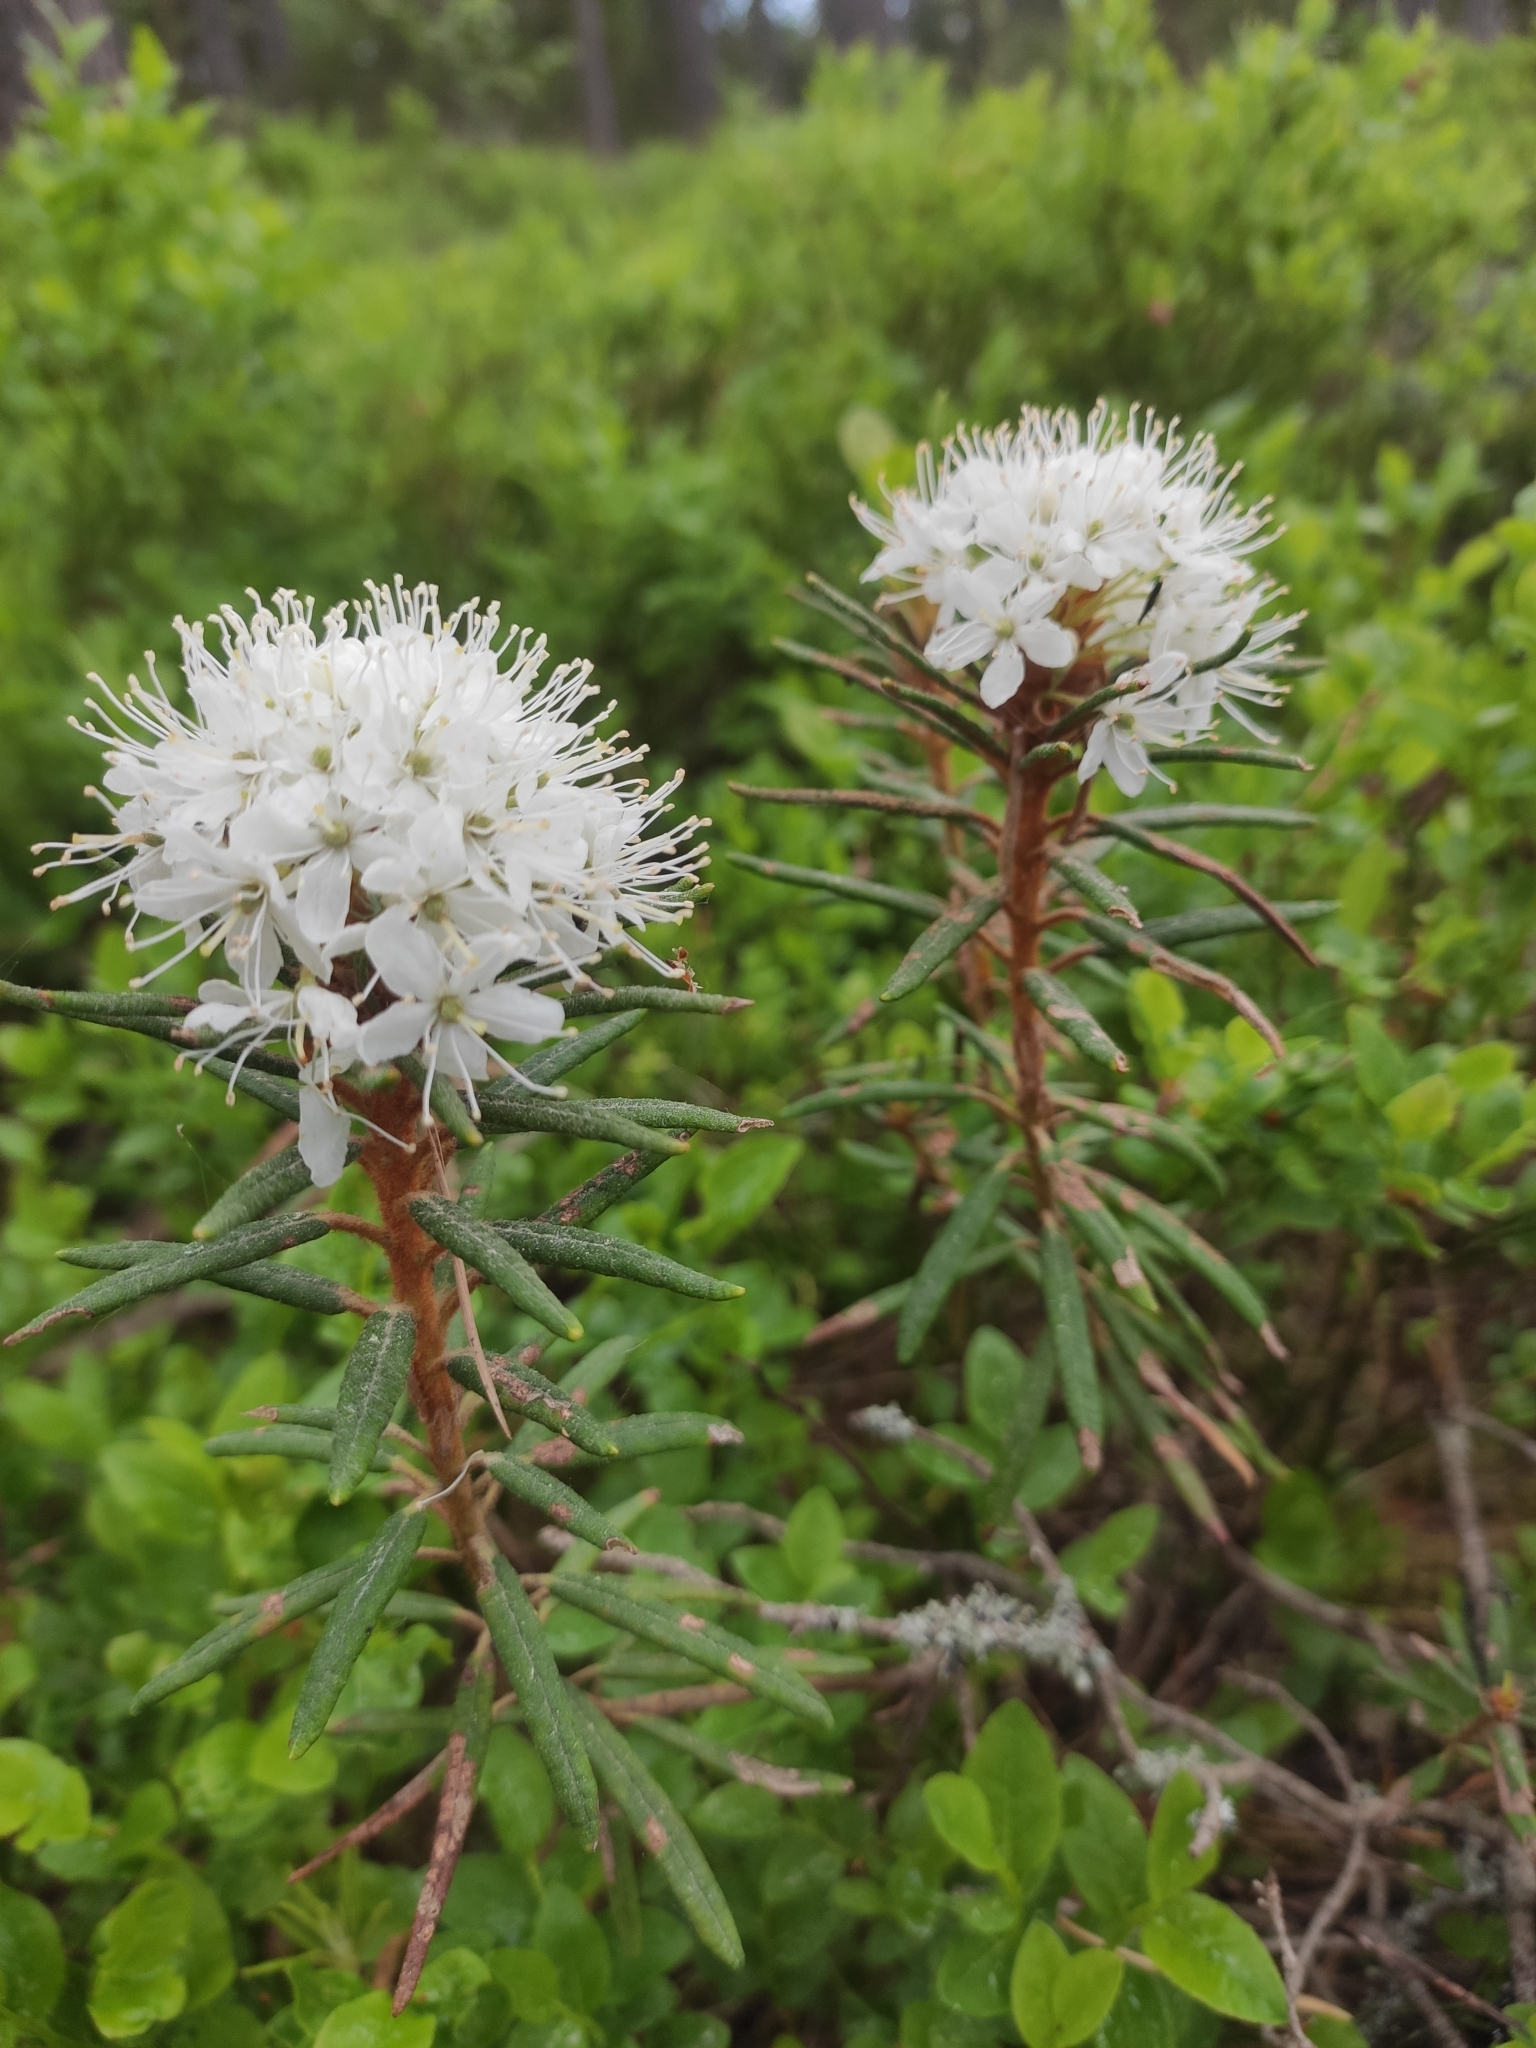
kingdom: Plantae
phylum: Tracheophyta
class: Magnoliopsida
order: Ericales
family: Ericaceae
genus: Rhododendron
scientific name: Rhododendron tomentosum
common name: Marsh labrador tea
